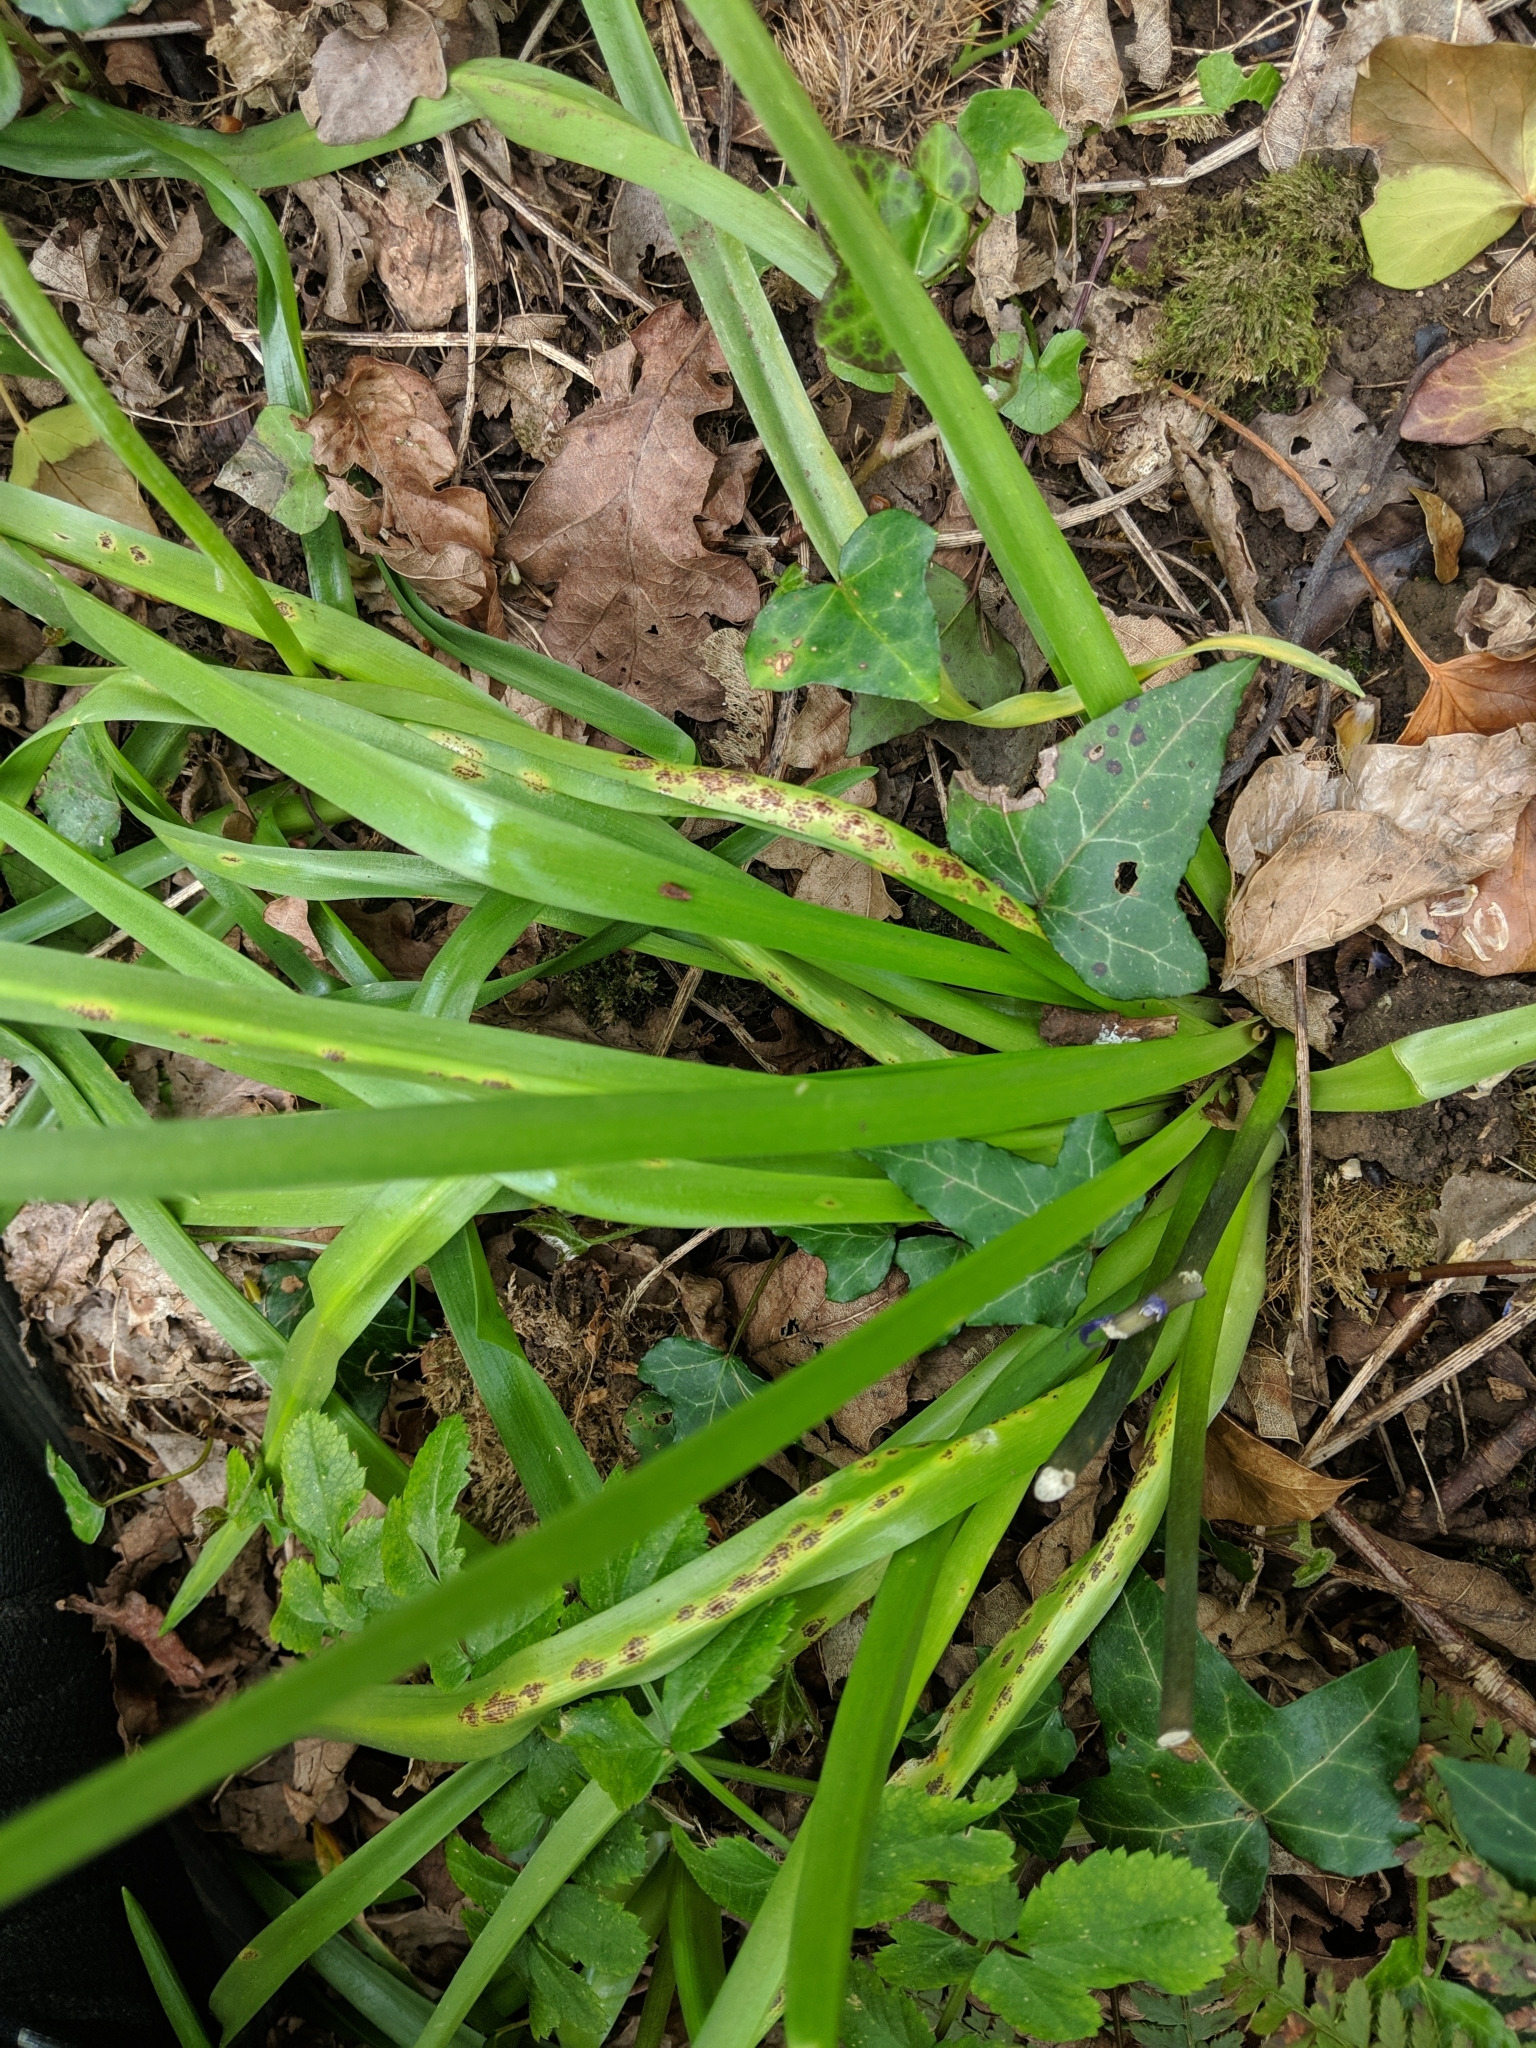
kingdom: Fungi
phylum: Basidiomycota
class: Pucciniomycetes
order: Pucciniales
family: Pucciniaceae
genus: Uromyces
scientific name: Uromyces hyacinthi
